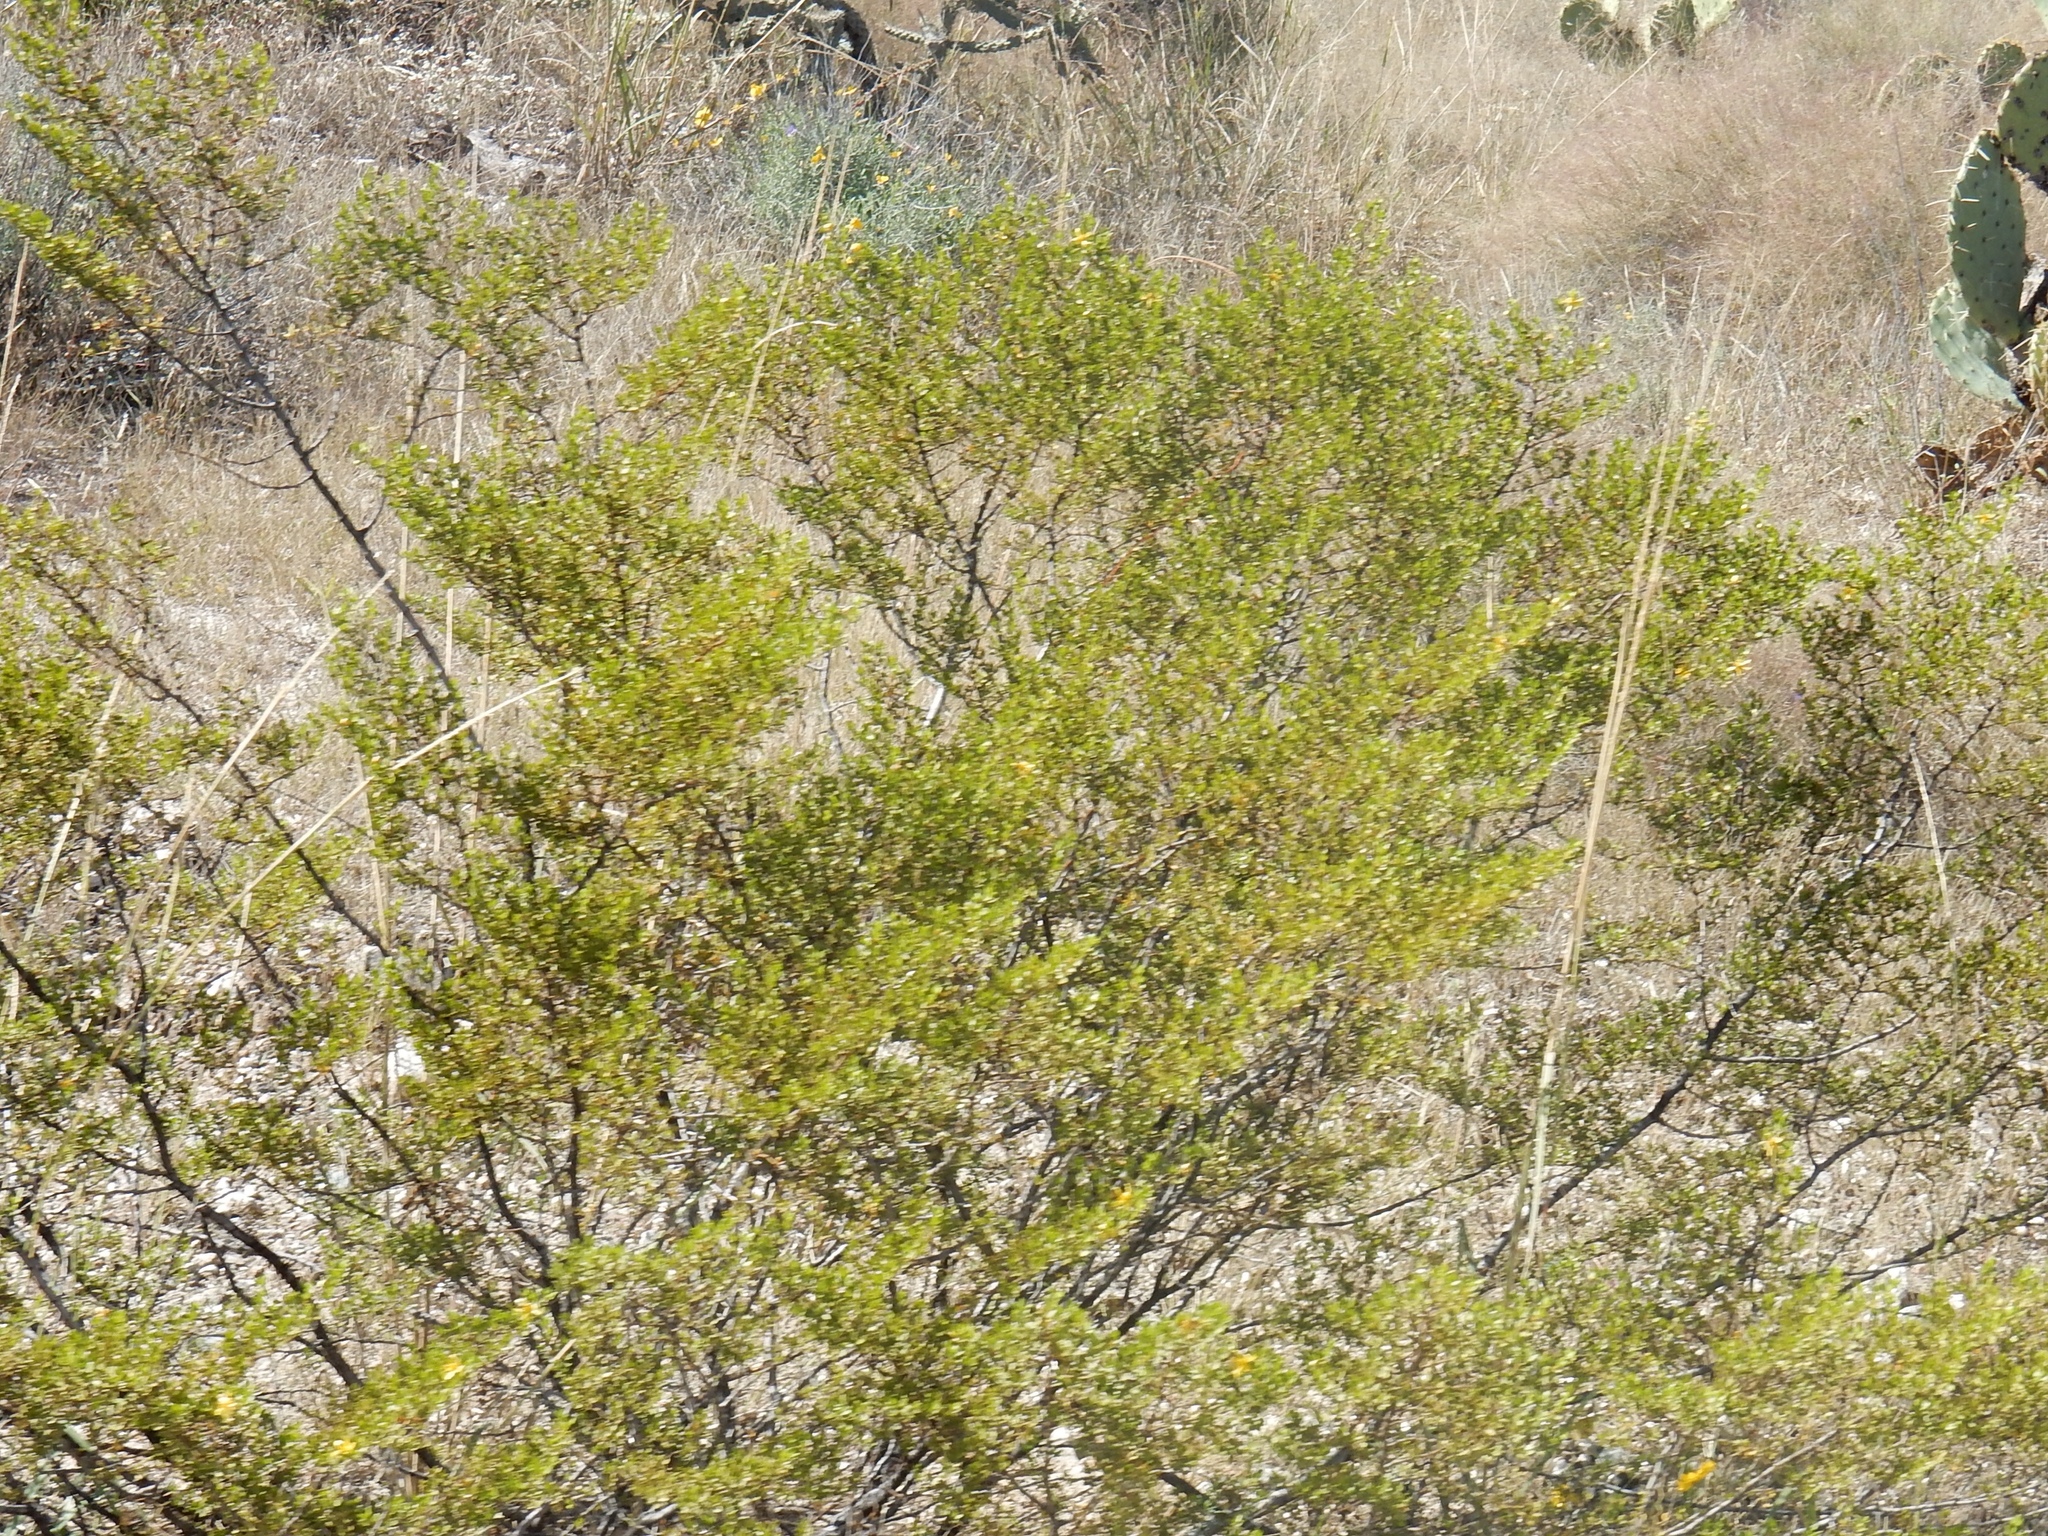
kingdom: Plantae
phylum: Tracheophyta
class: Magnoliopsida
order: Zygophyllales
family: Zygophyllaceae
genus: Larrea
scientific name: Larrea tridentata
